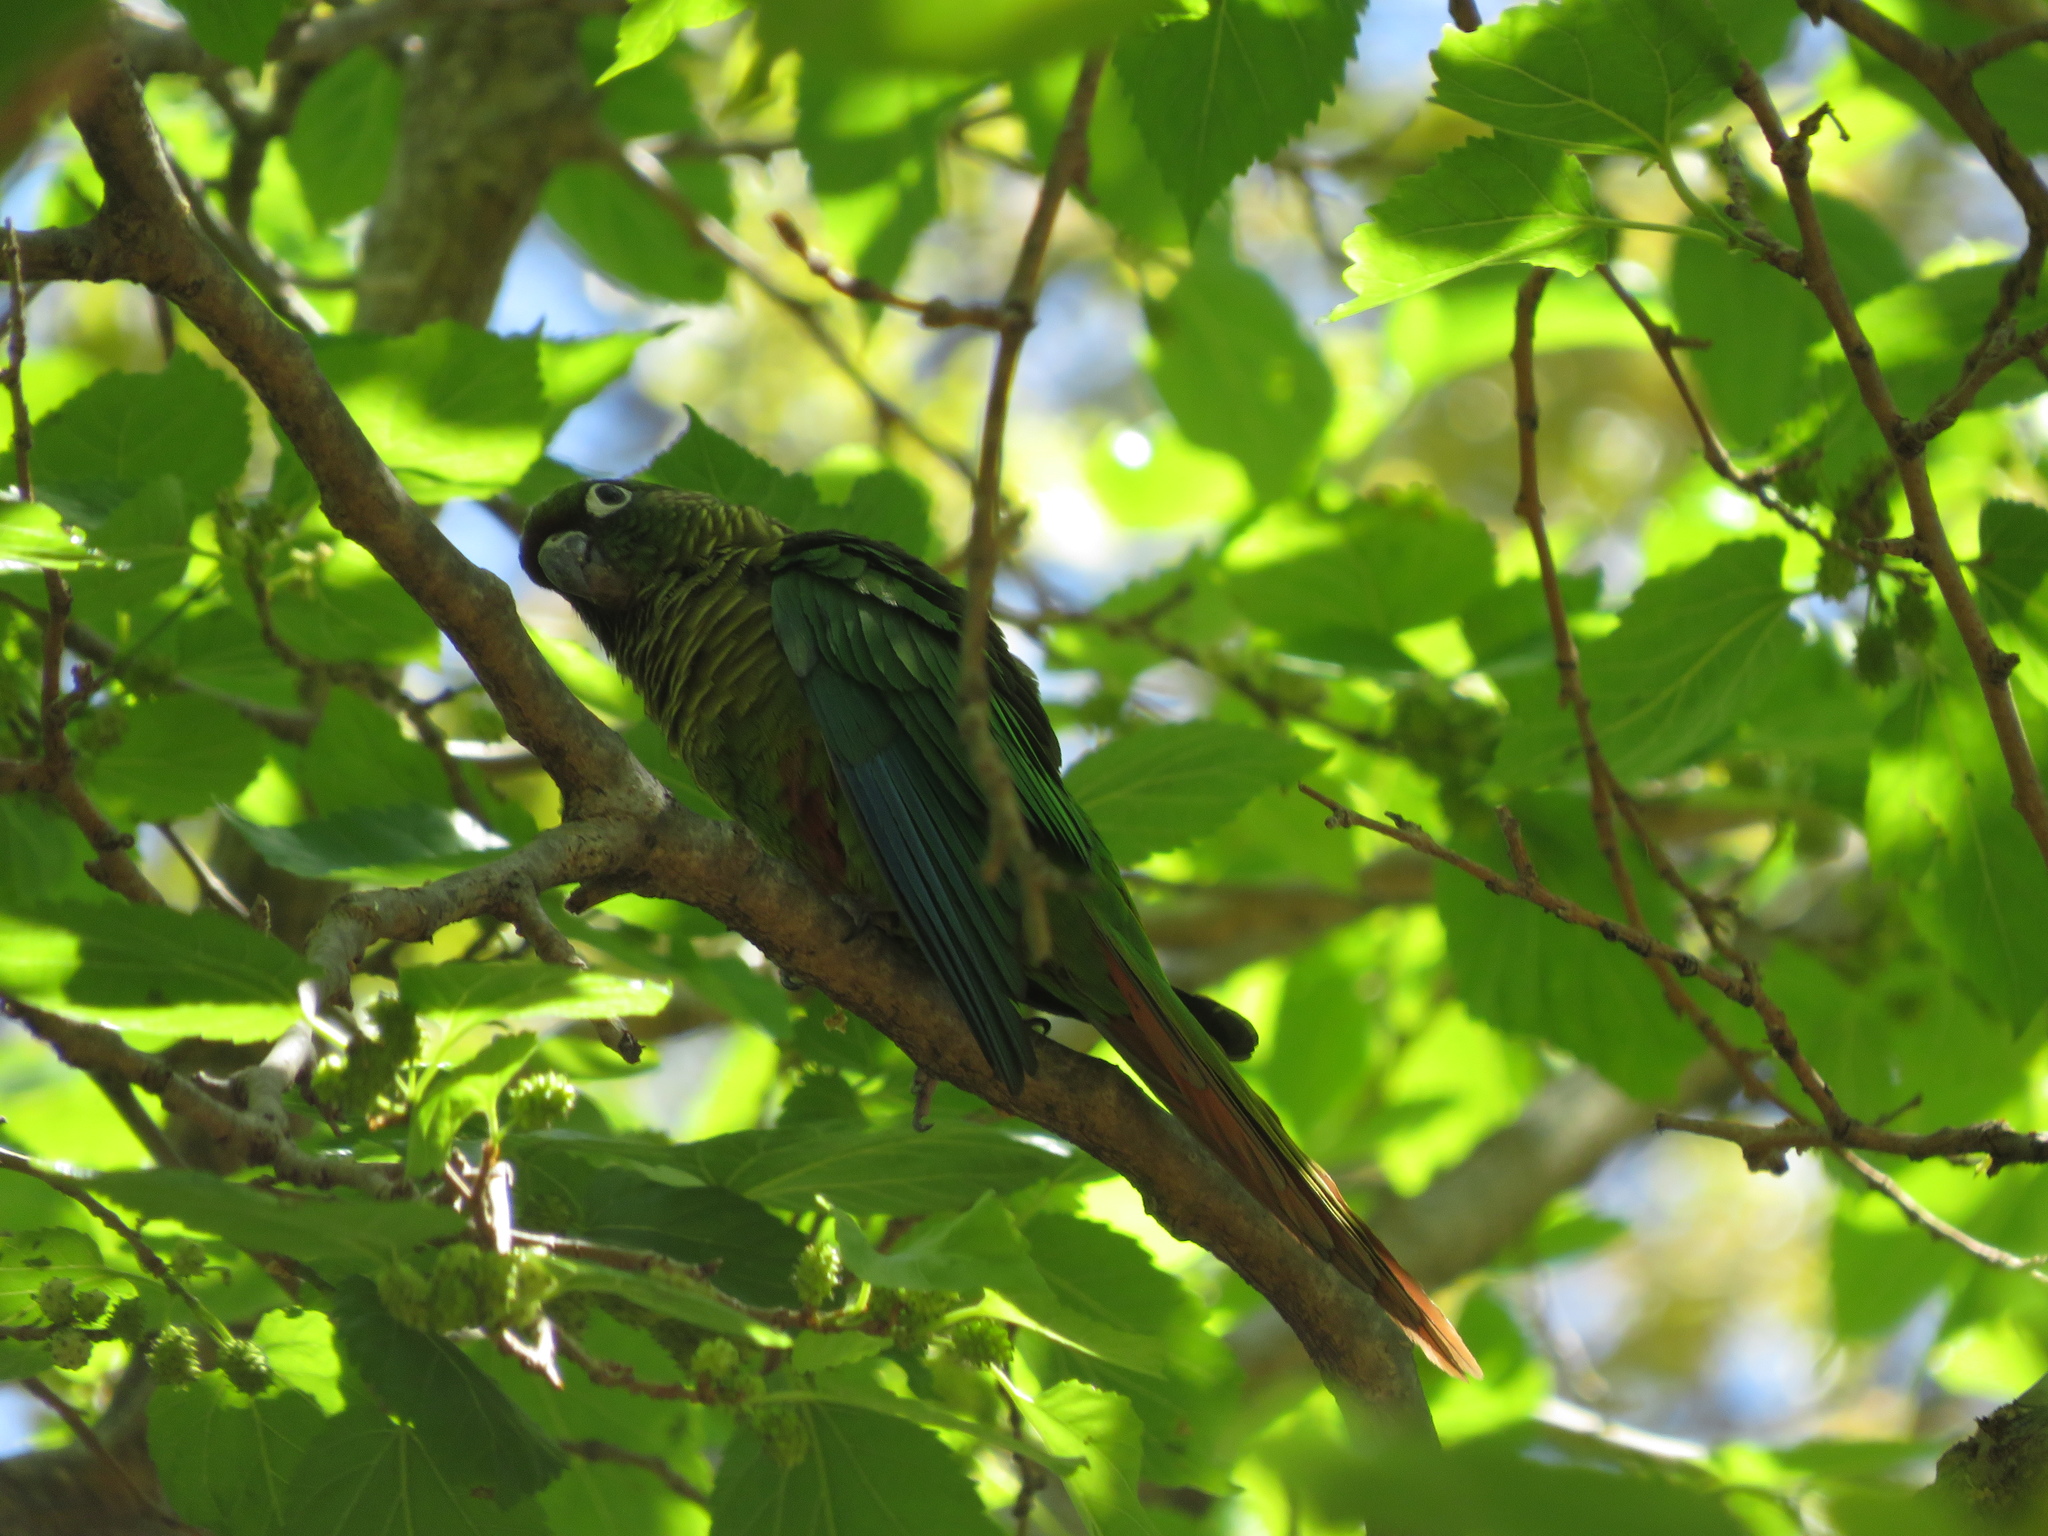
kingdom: Animalia
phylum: Chordata
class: Aves
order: Psittaciformes
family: Psittacidae
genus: Pyrrhura
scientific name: Pyrrhura frontalis
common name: Maroon-bellied parakeet
